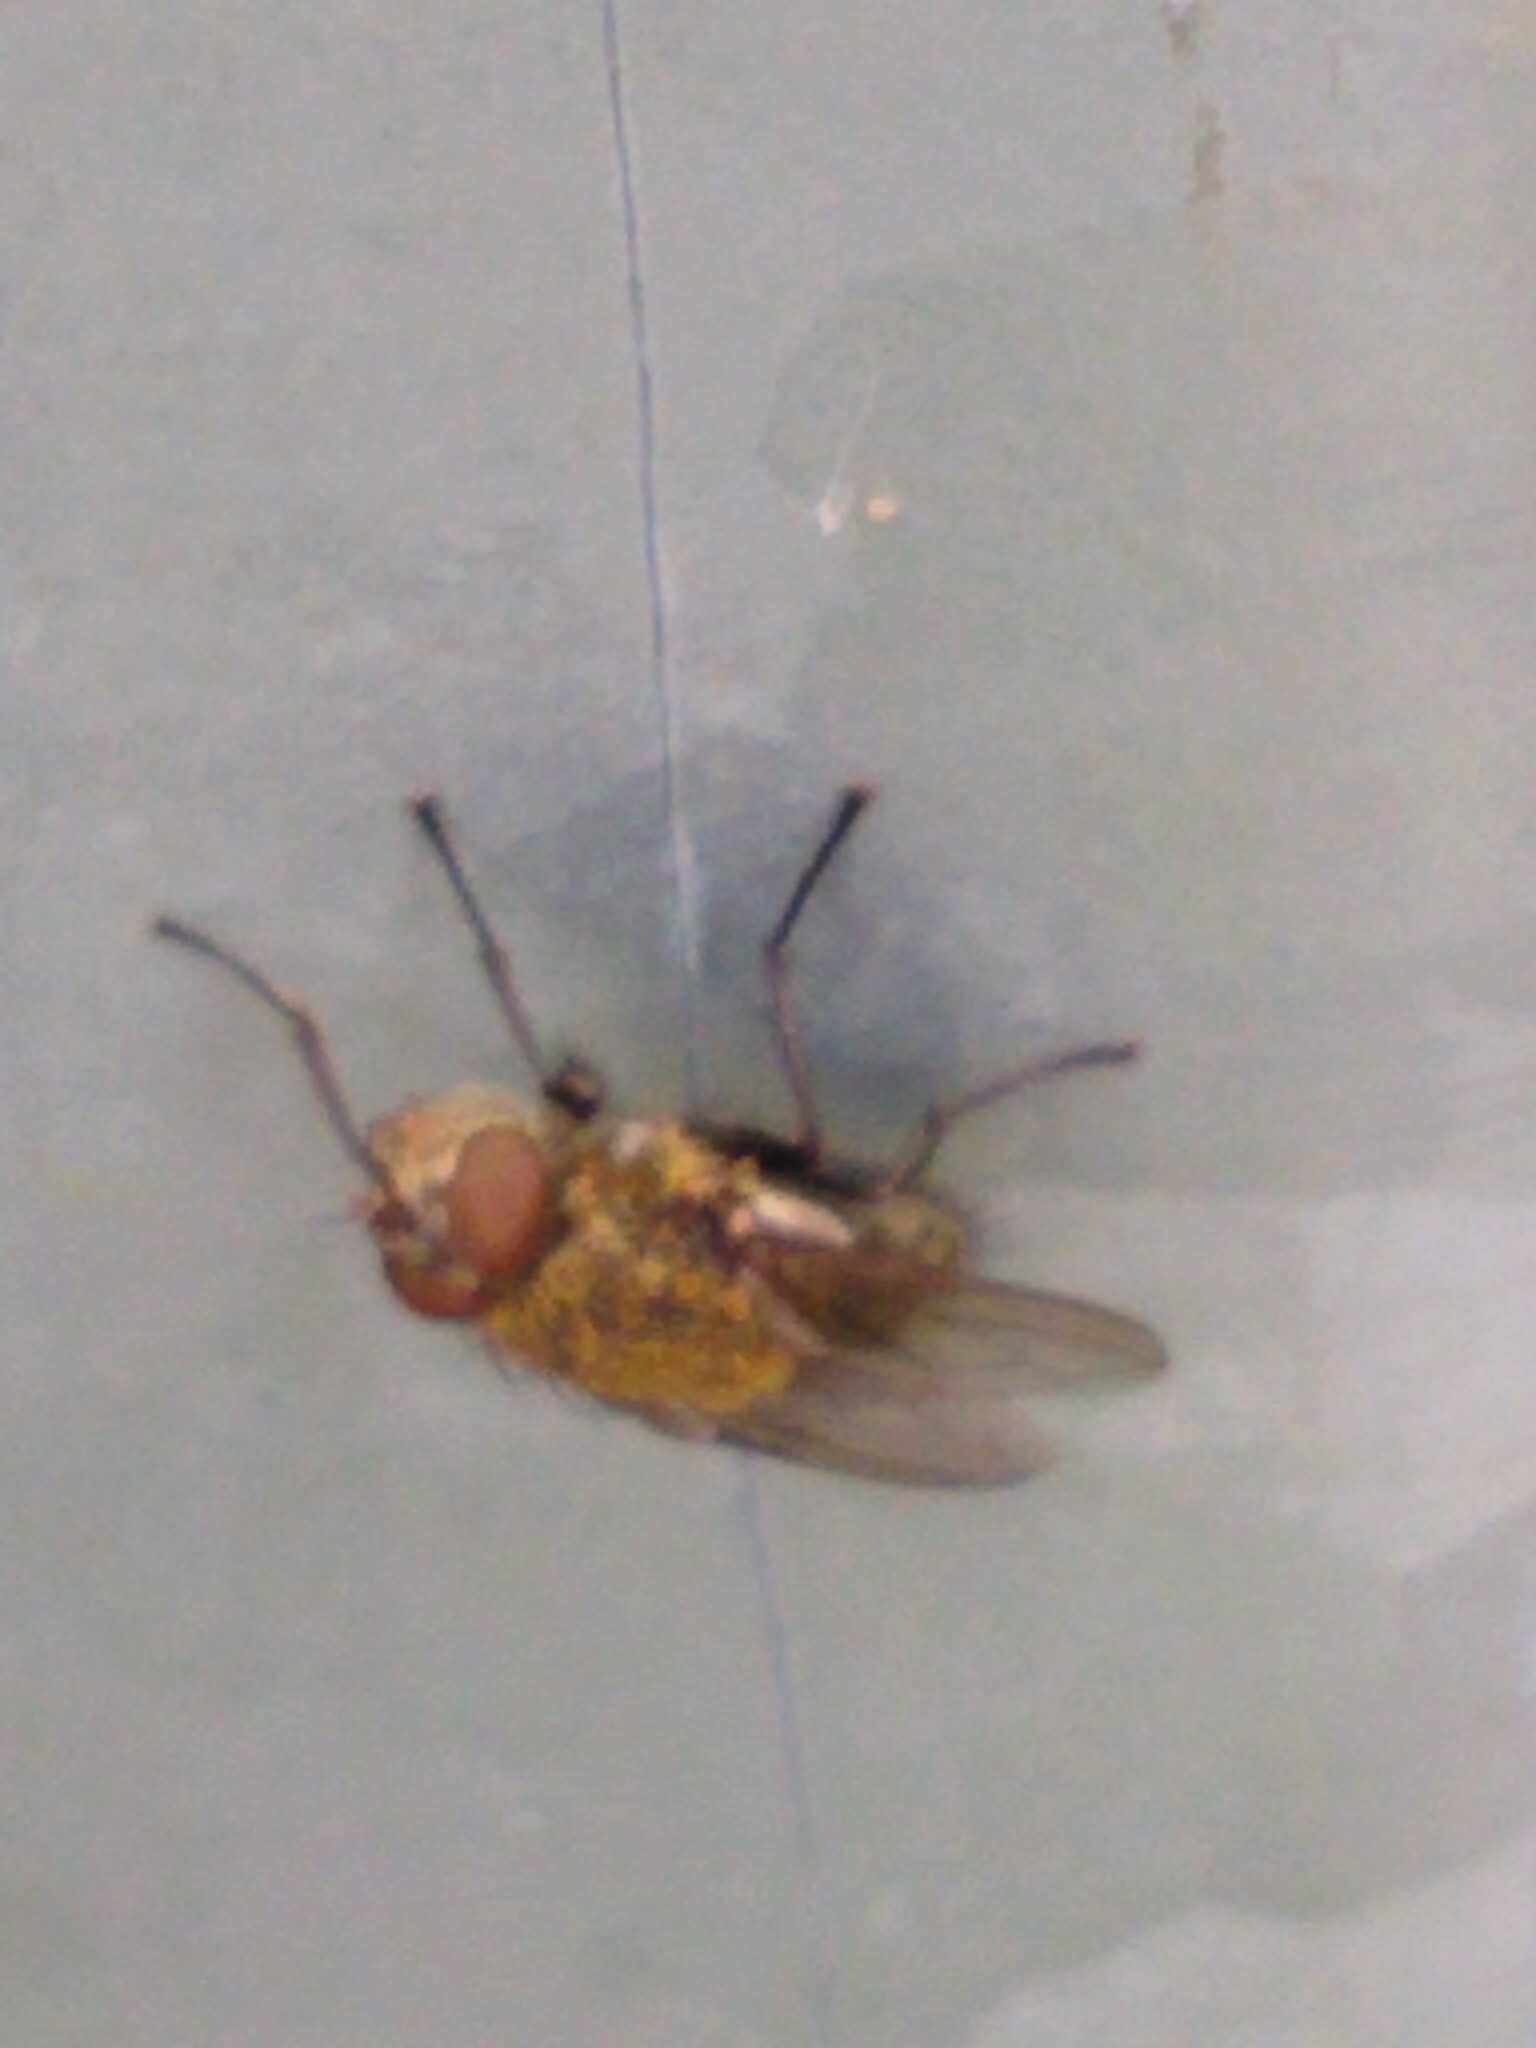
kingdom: Animalia
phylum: Arthropoda
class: Insecta
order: Diptera
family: Polleniidae
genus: Pollenia
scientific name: Pollenia
